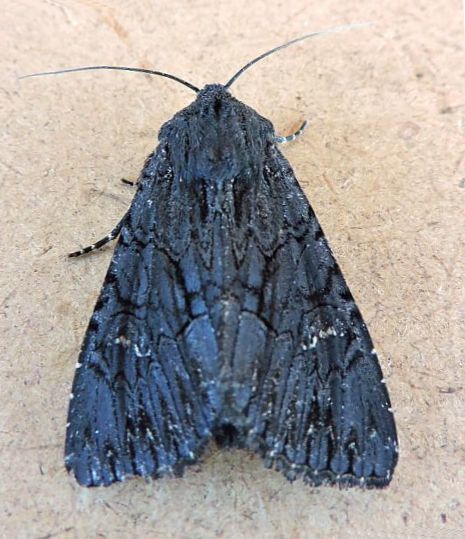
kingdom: Animalia
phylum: Arthropoda
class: Insecta
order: Lepidoptera
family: Noctuidae
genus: Apamea
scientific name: Apamea burgessi
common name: Burgess' apamea moth
